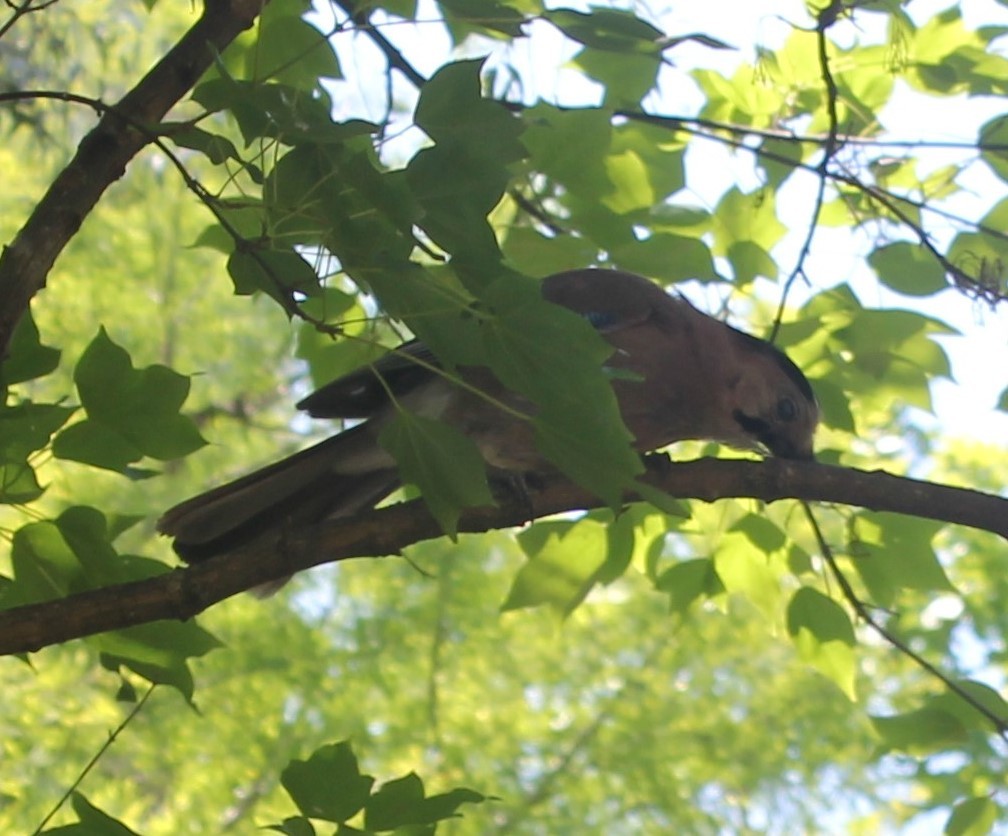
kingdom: Animalia
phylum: Chordata
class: Aves
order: Passeriformes
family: Corvidae
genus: Garrulus
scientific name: Garrulus glandarius
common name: Eurasian jay
